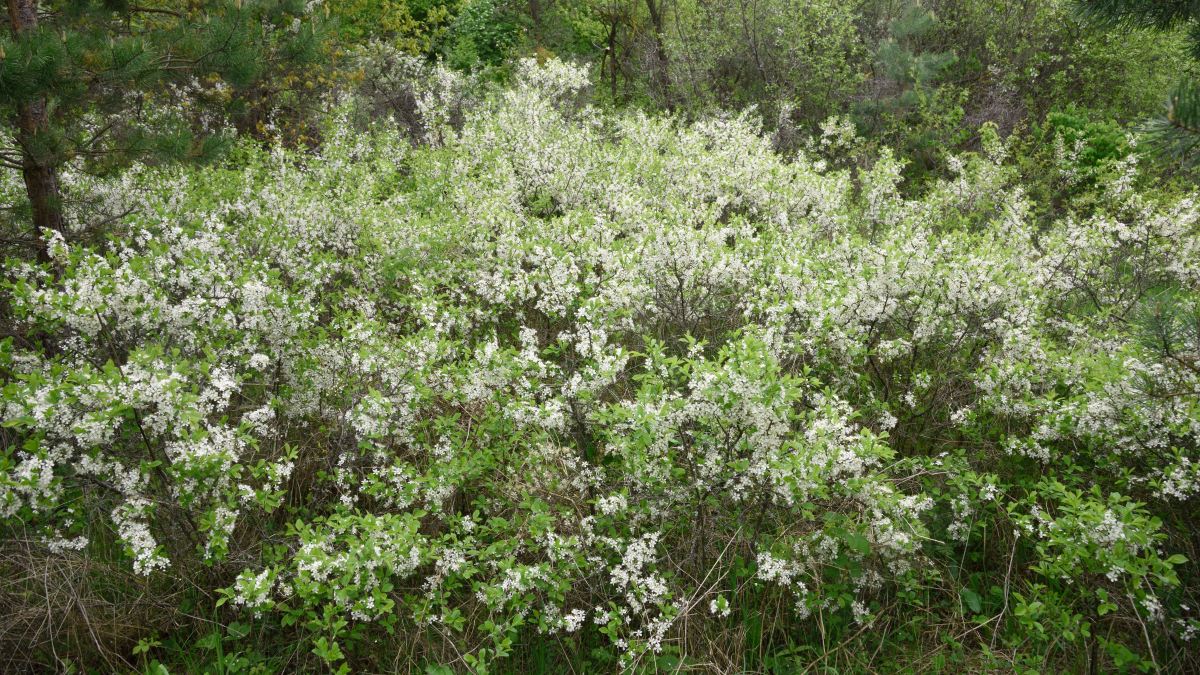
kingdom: Plantae
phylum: Tracheophyta
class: Magnoliopsida
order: Rosales
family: Rosaceae
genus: Prunus
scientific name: Prunus spinosa
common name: Blackthorn
